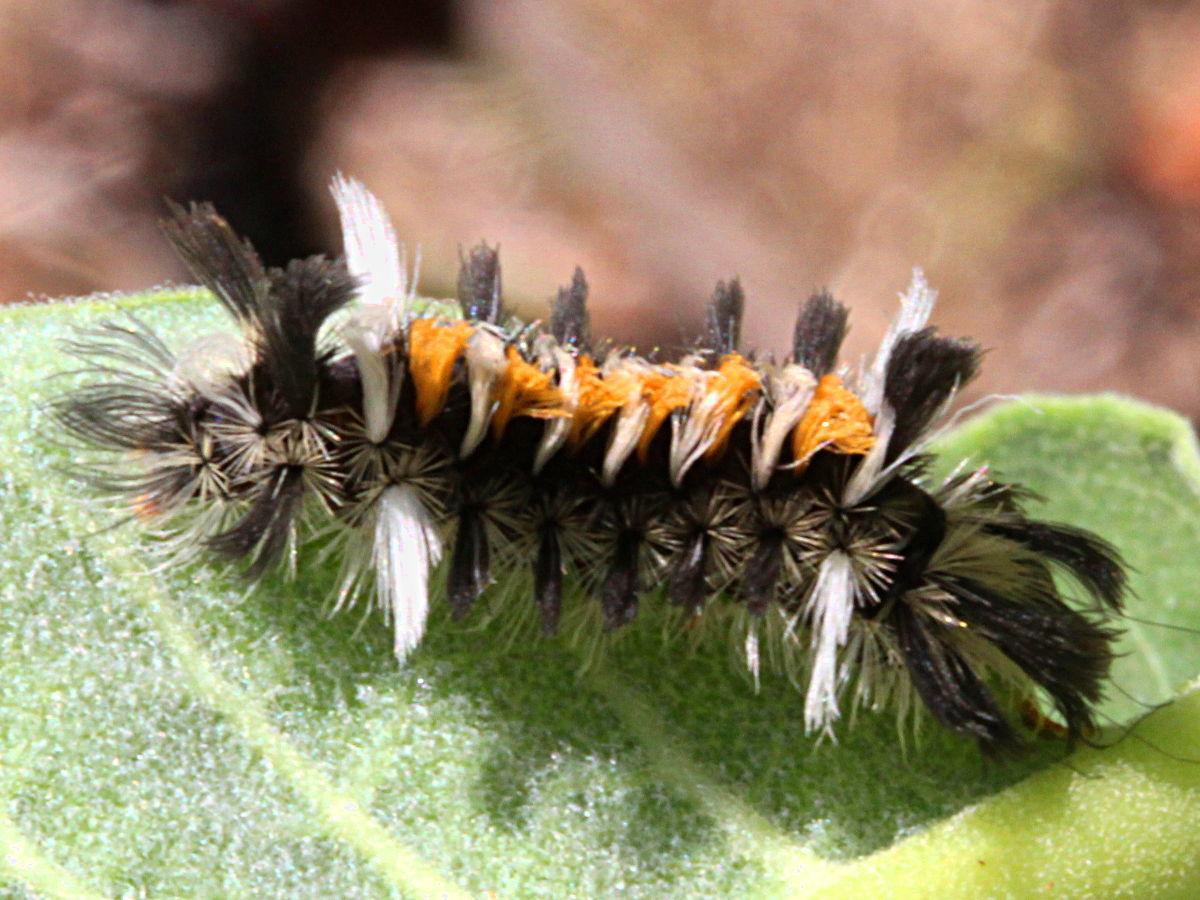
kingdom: Animalia
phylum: Arthropoda
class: Insecta
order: Lepidoptera
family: Erebidae
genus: Euchaetes
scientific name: Euchaetes egle
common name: Milkweed tussock moth
